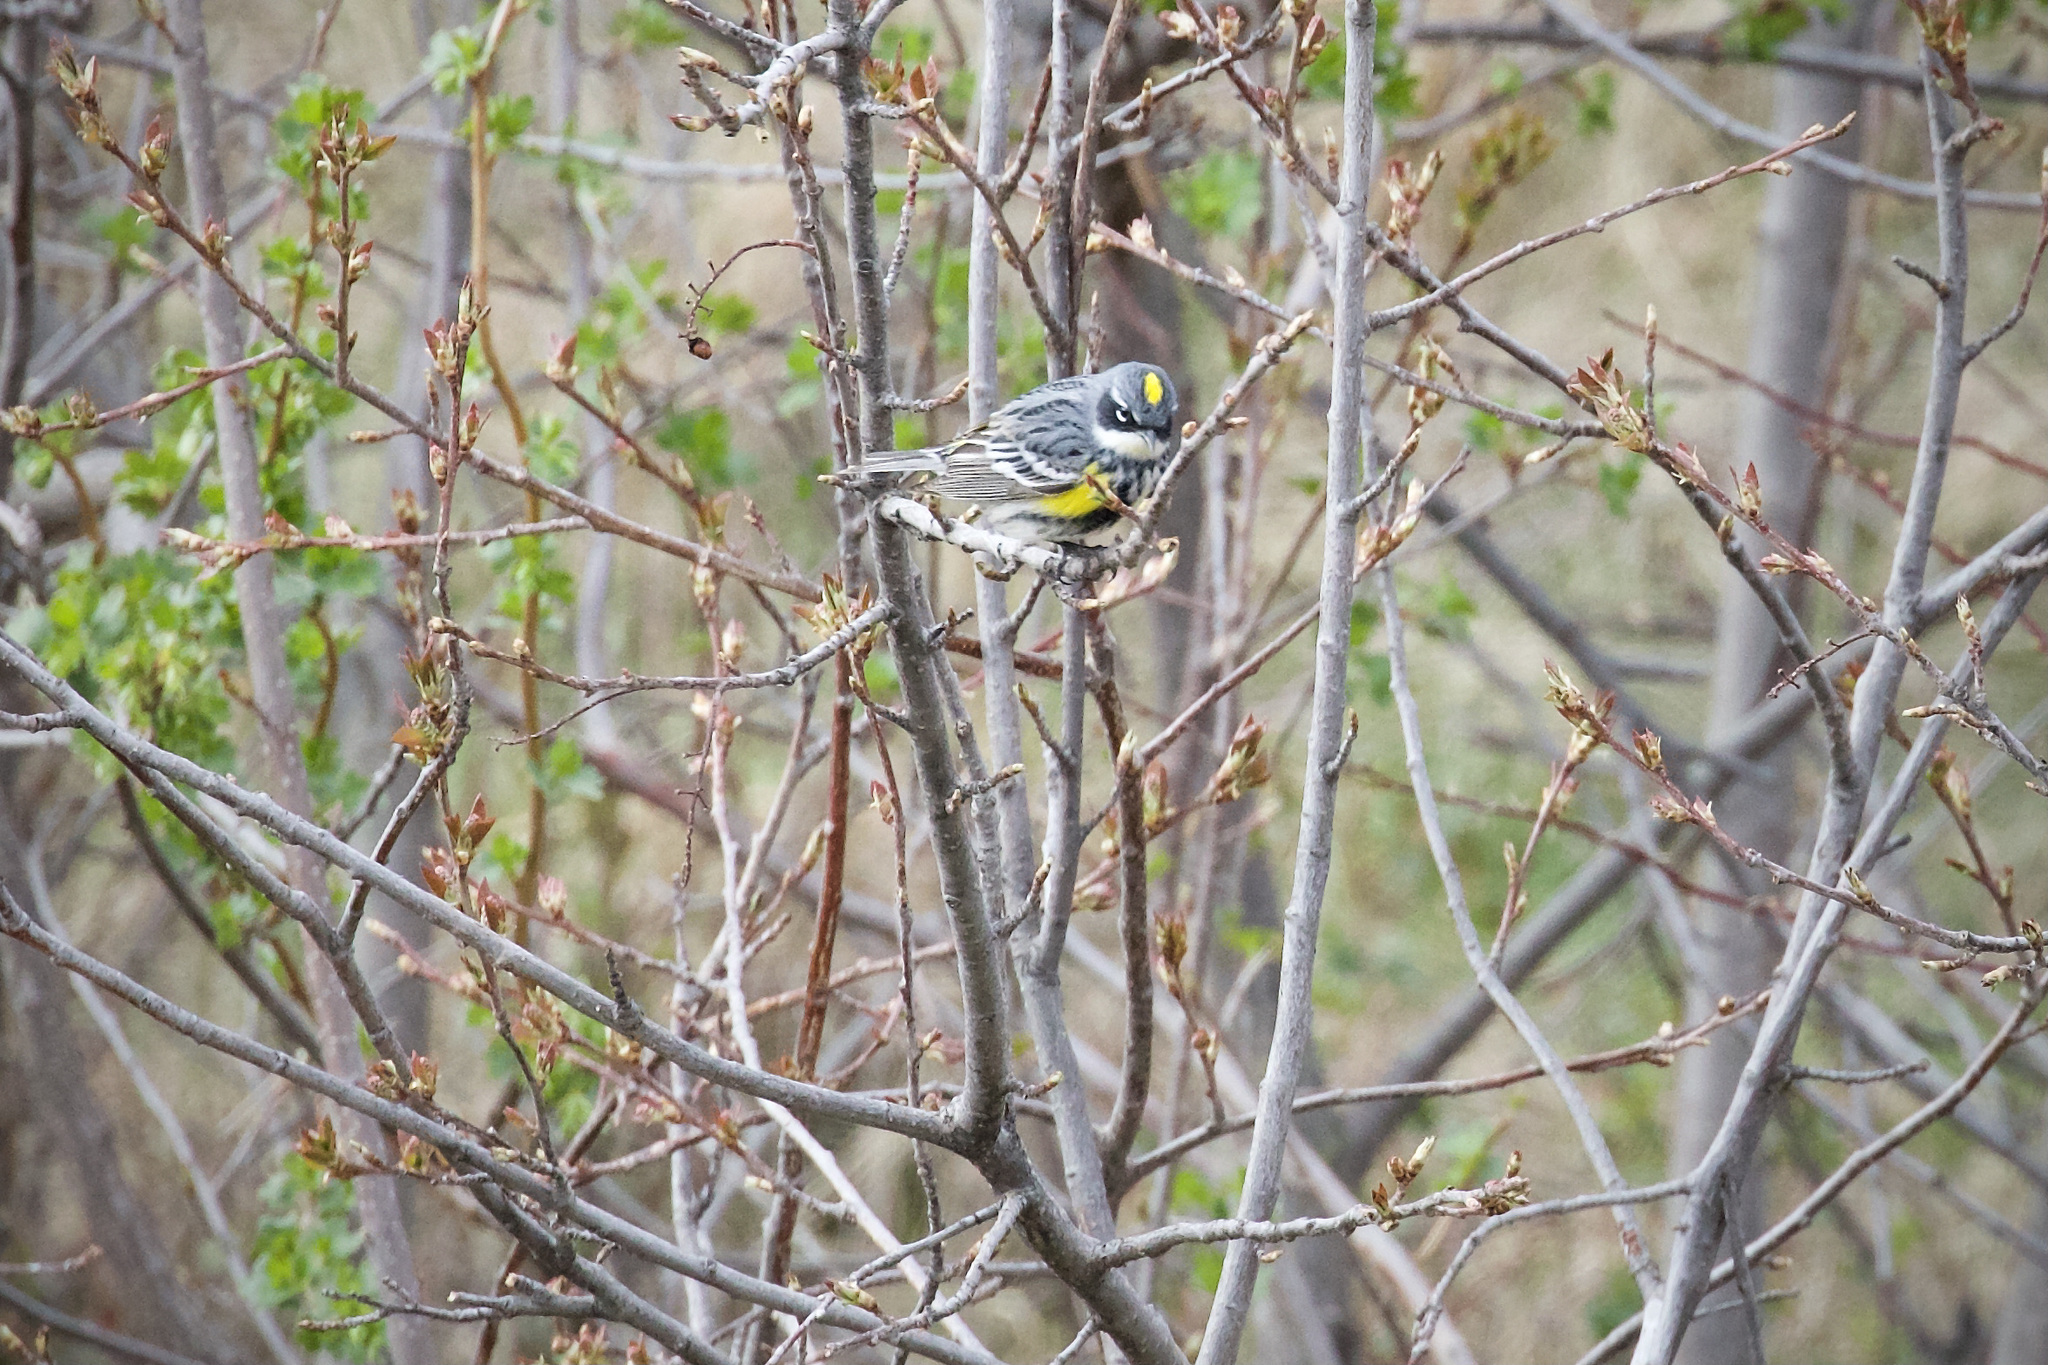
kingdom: Animalia
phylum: Chordata
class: Aves
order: Passeriformes
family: Parulidae
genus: Setophaga
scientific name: Setophaga coronata
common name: Myrtle warbler
